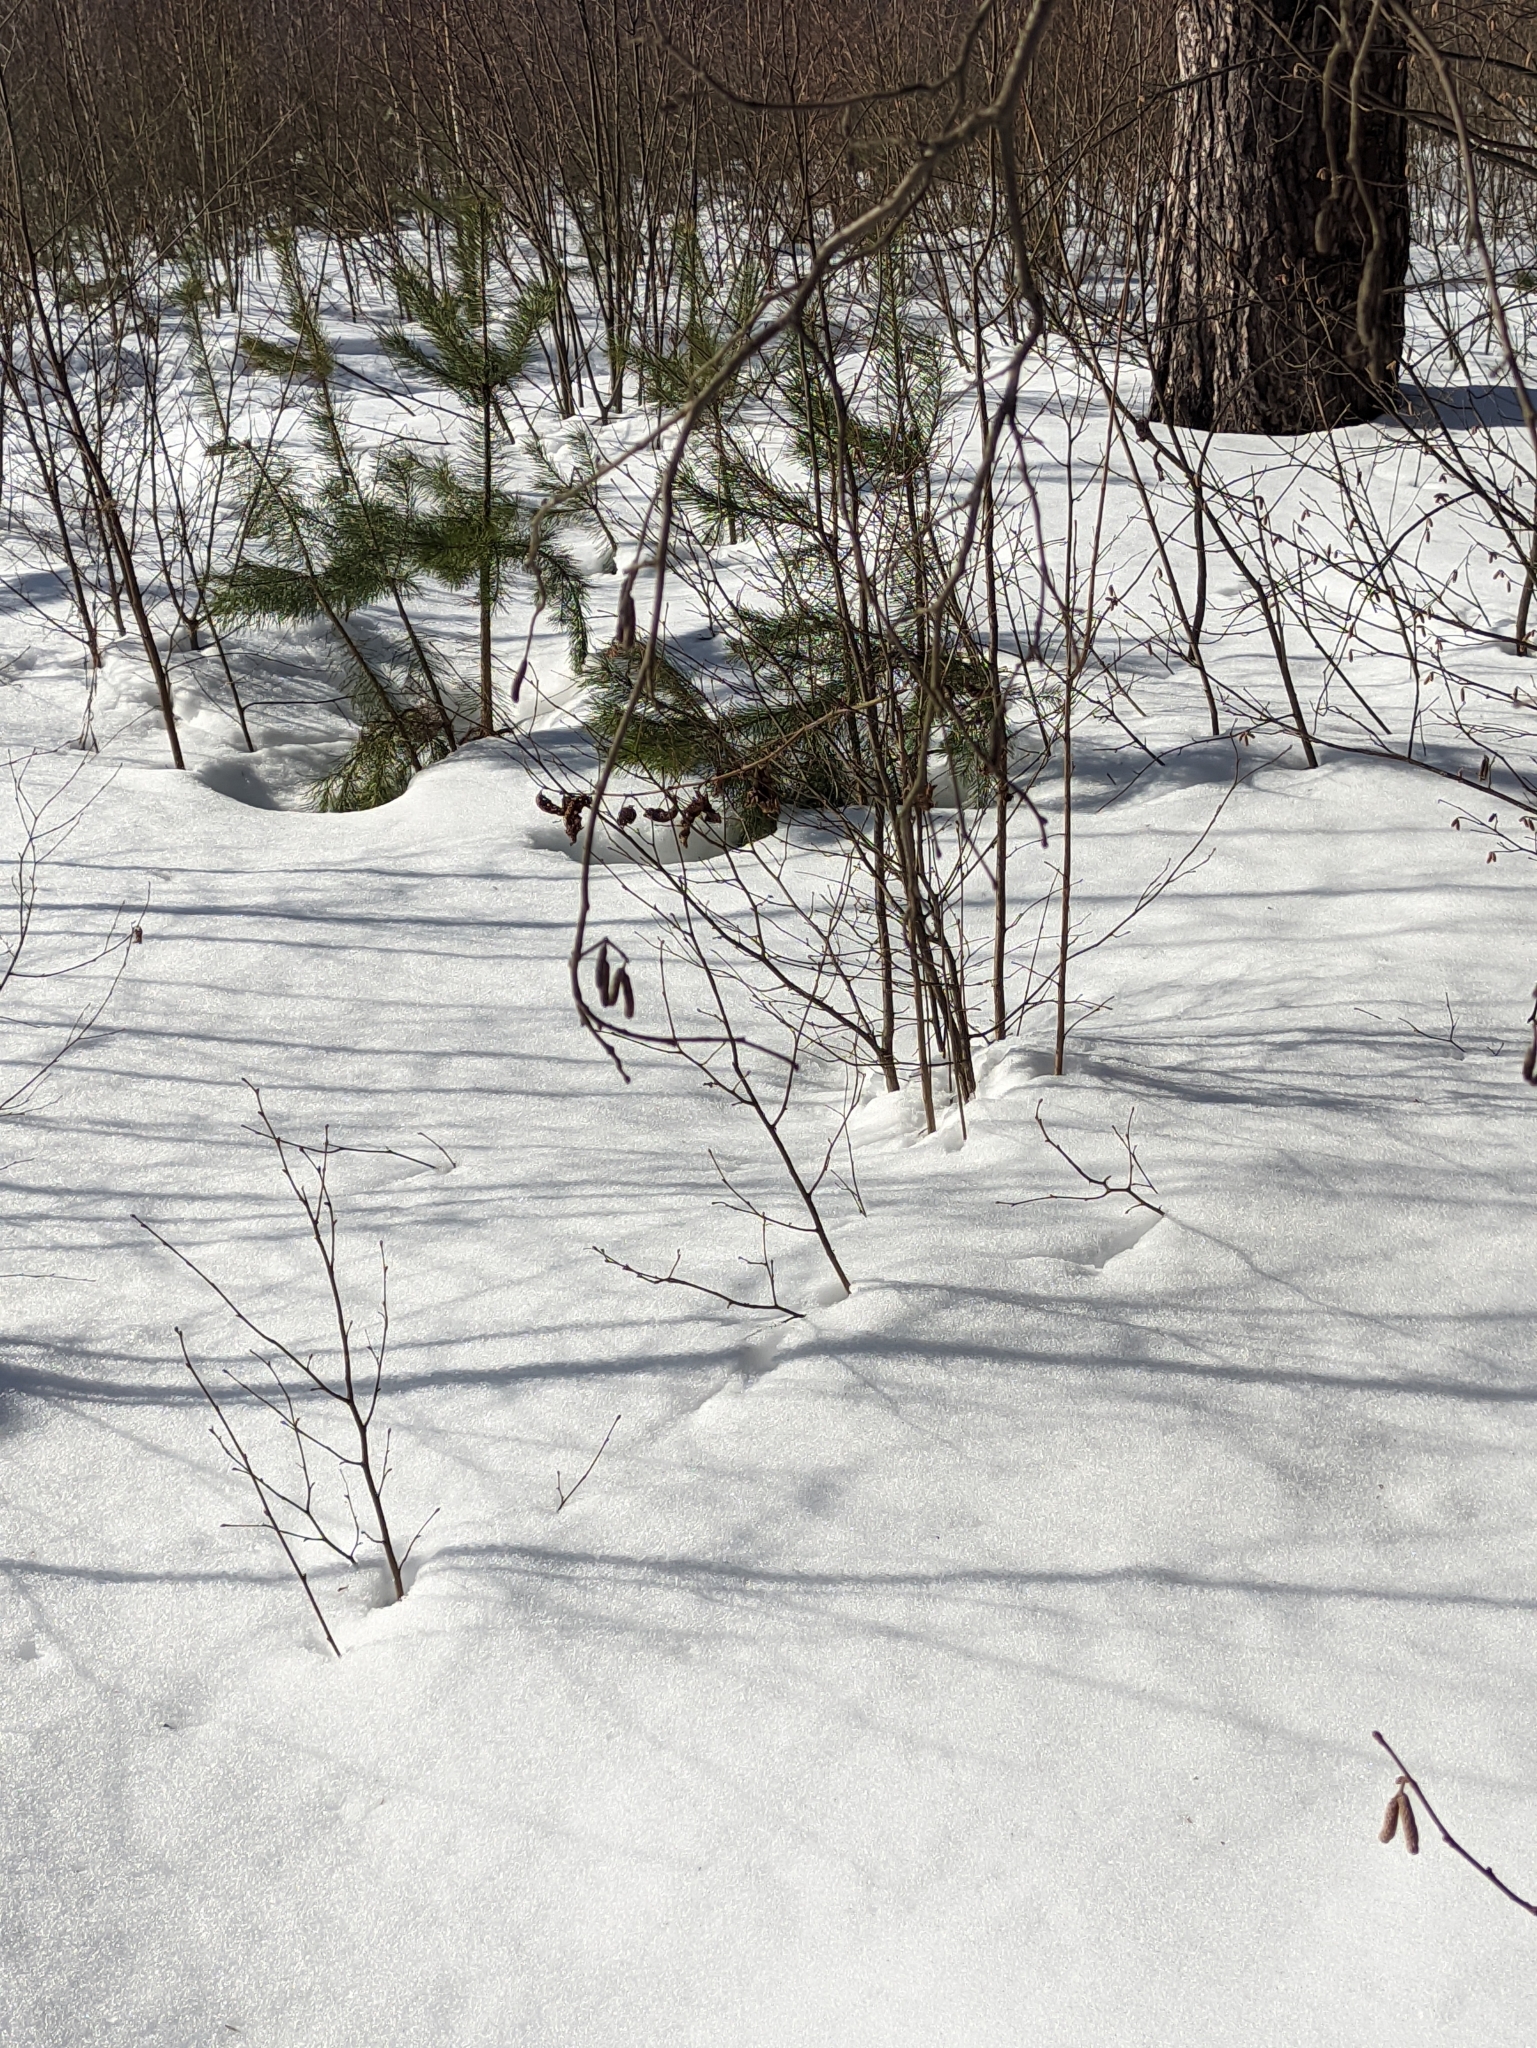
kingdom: Plantae
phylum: Tracheophyta
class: Magnoliopsida
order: Fagales
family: Betulaceae
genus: Corylus
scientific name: Corylus avellana
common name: European hazel
